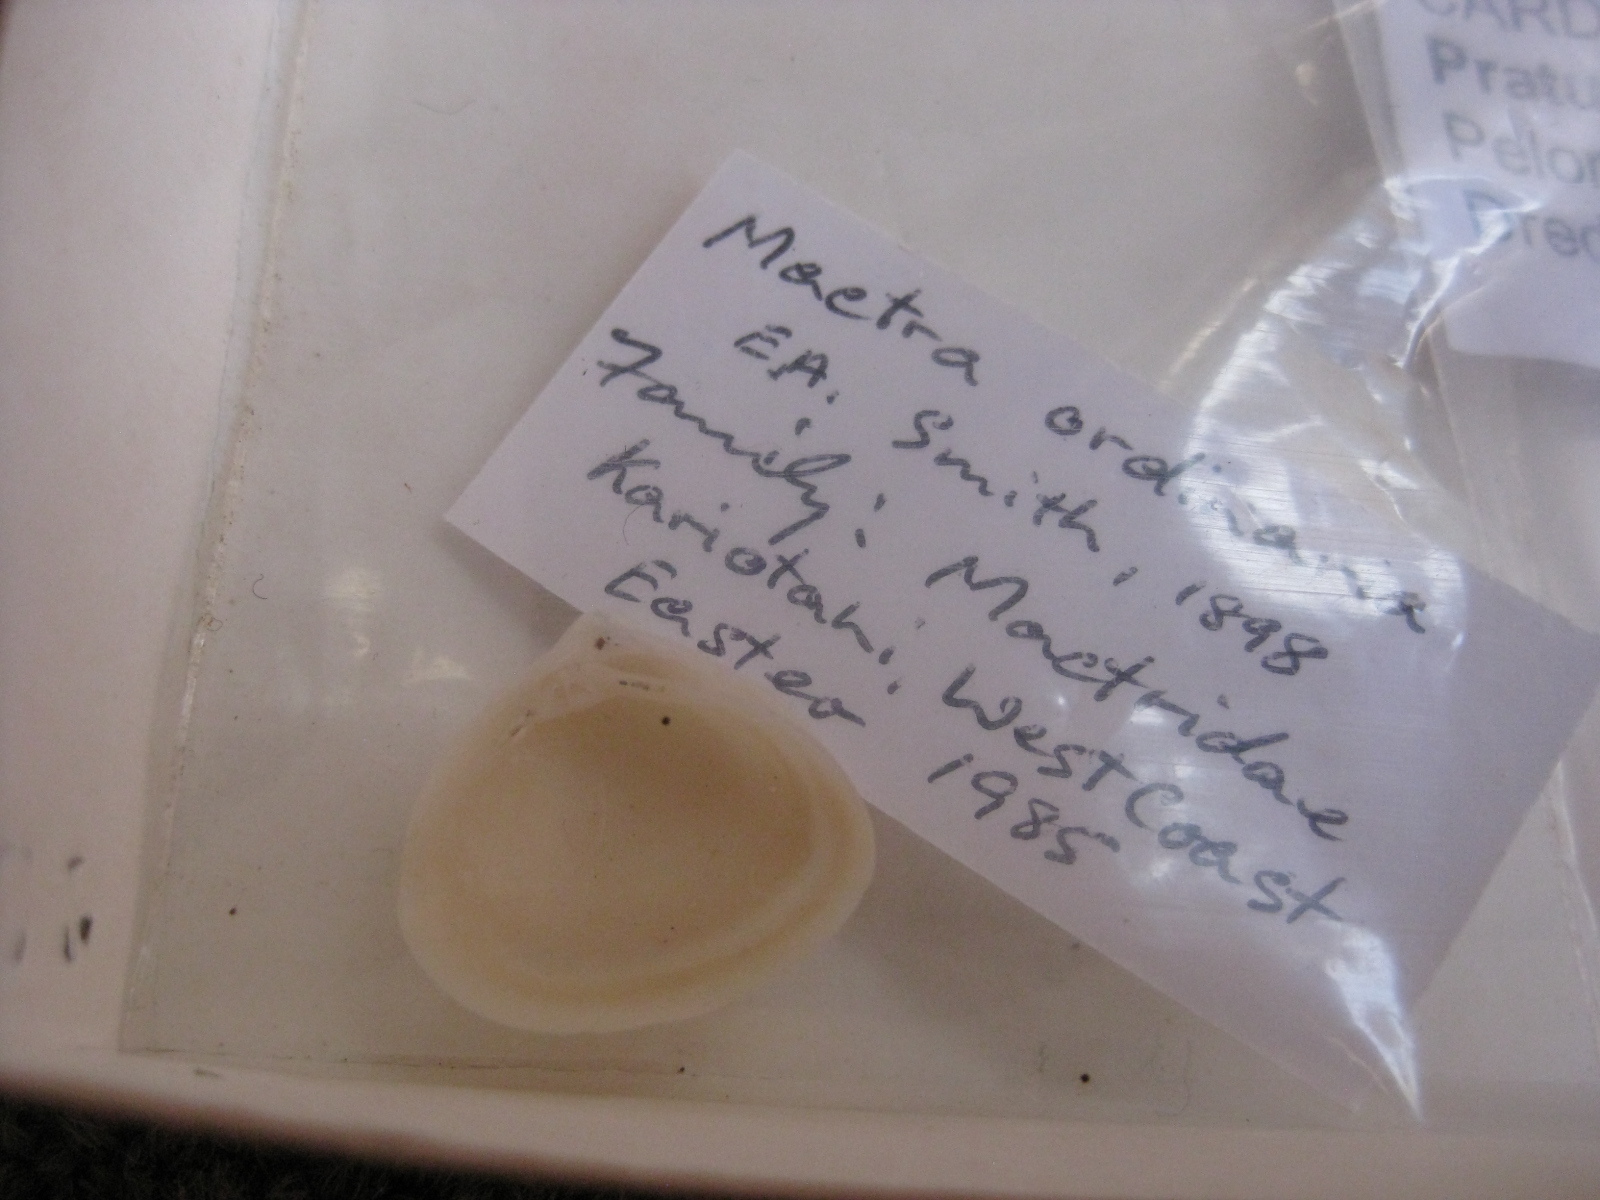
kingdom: Animalia
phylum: Mollusca
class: Bivalvia
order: Venerida
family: Mactridae
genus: Maorimactra
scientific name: Maorimactra ordinaria
